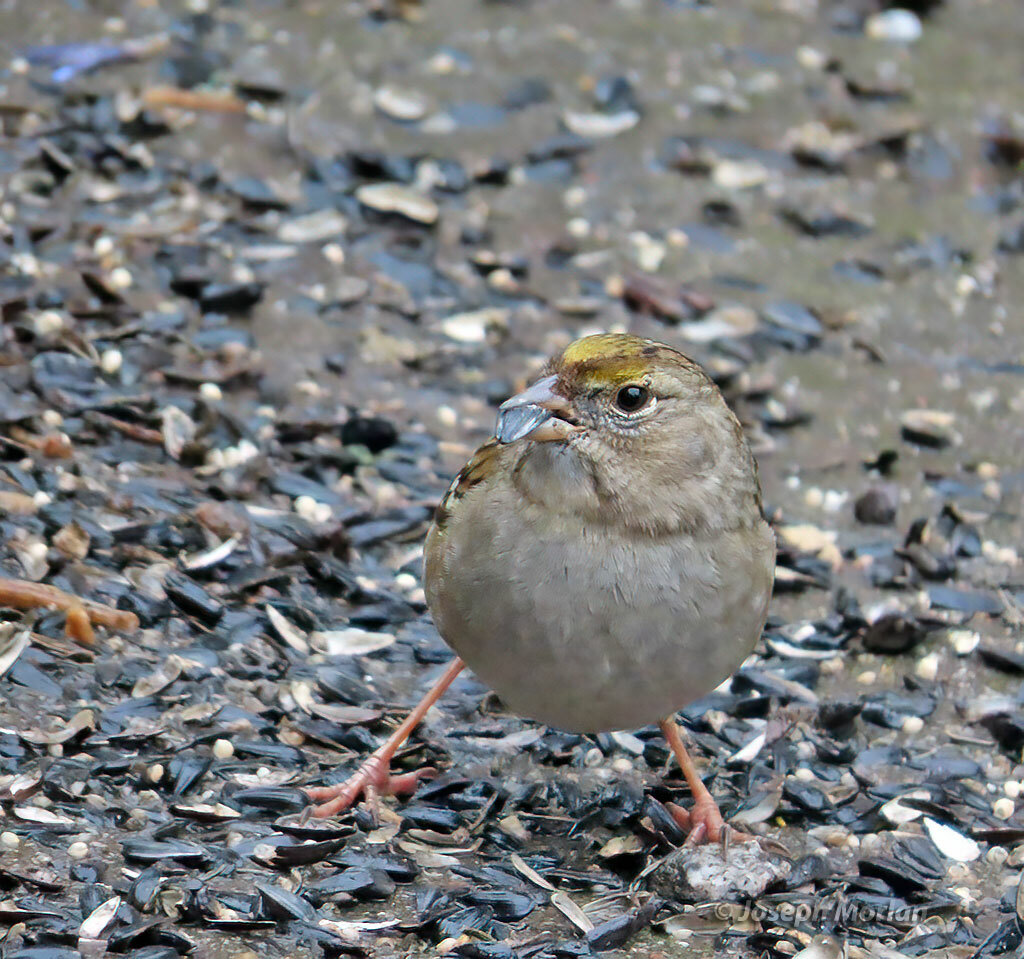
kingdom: Animalia
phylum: Chordata
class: Aves
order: Passeriformes
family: Passerellidae
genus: Zonotrichia
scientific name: Zonotrichia atricapilla
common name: Golden-crowned sparrow
